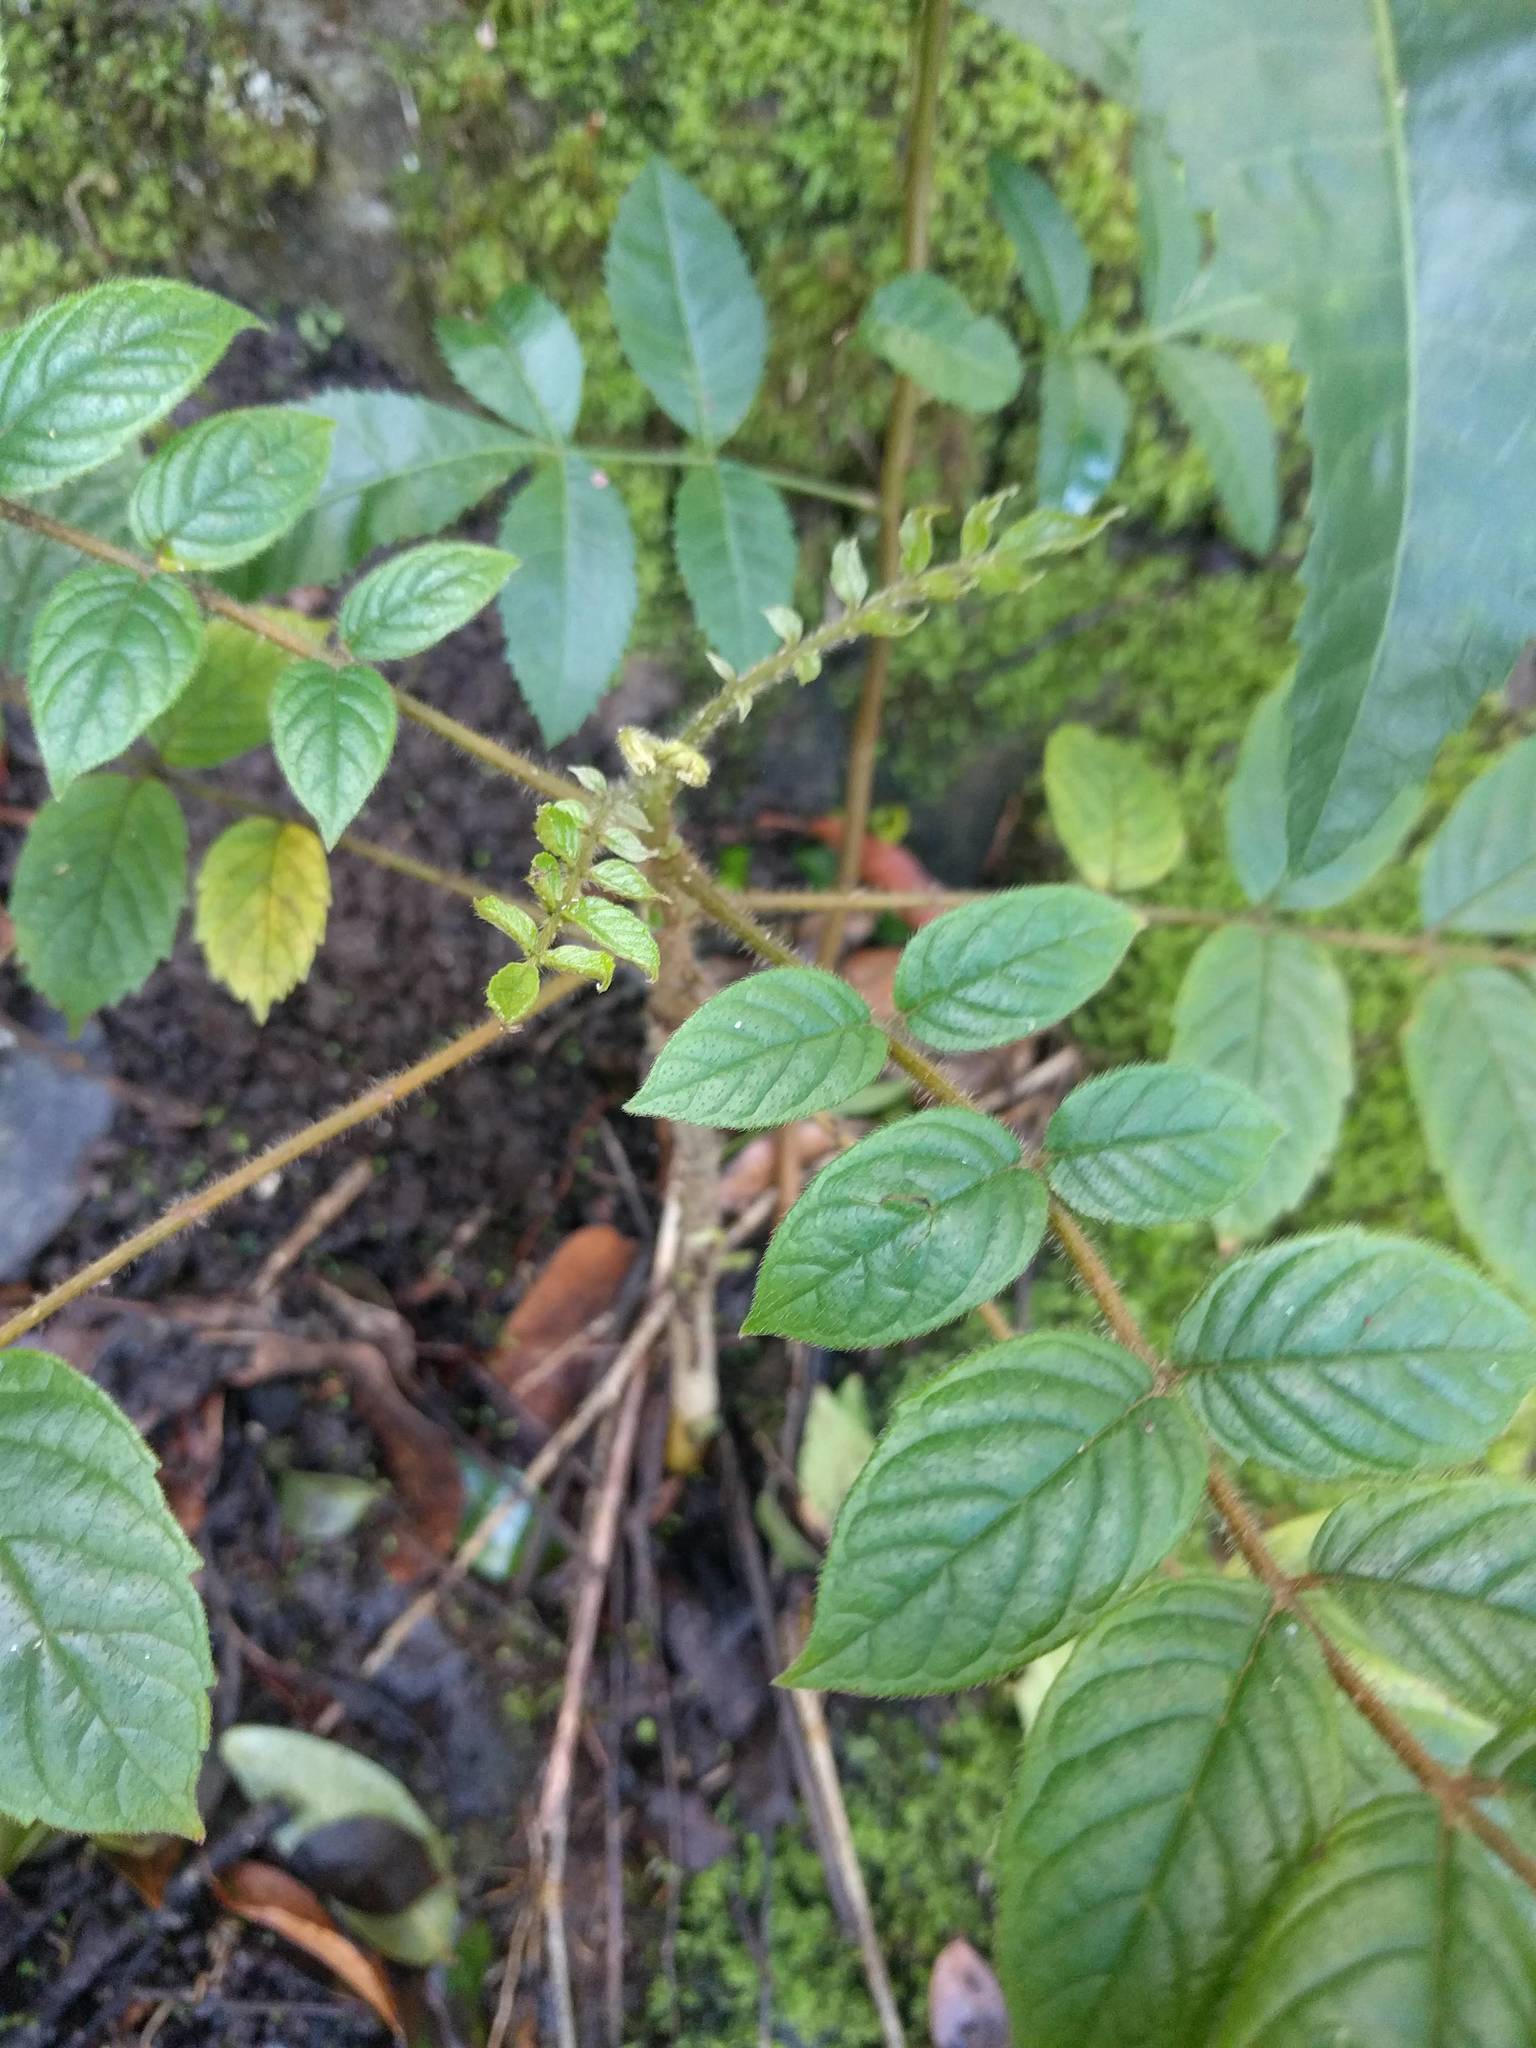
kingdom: Plantae
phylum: Tracheophyta
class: Magnoliopsida
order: Lamiales
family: Bignoniaceae
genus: Spathodea
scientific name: Spathodea campanulata
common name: African tuliptree
